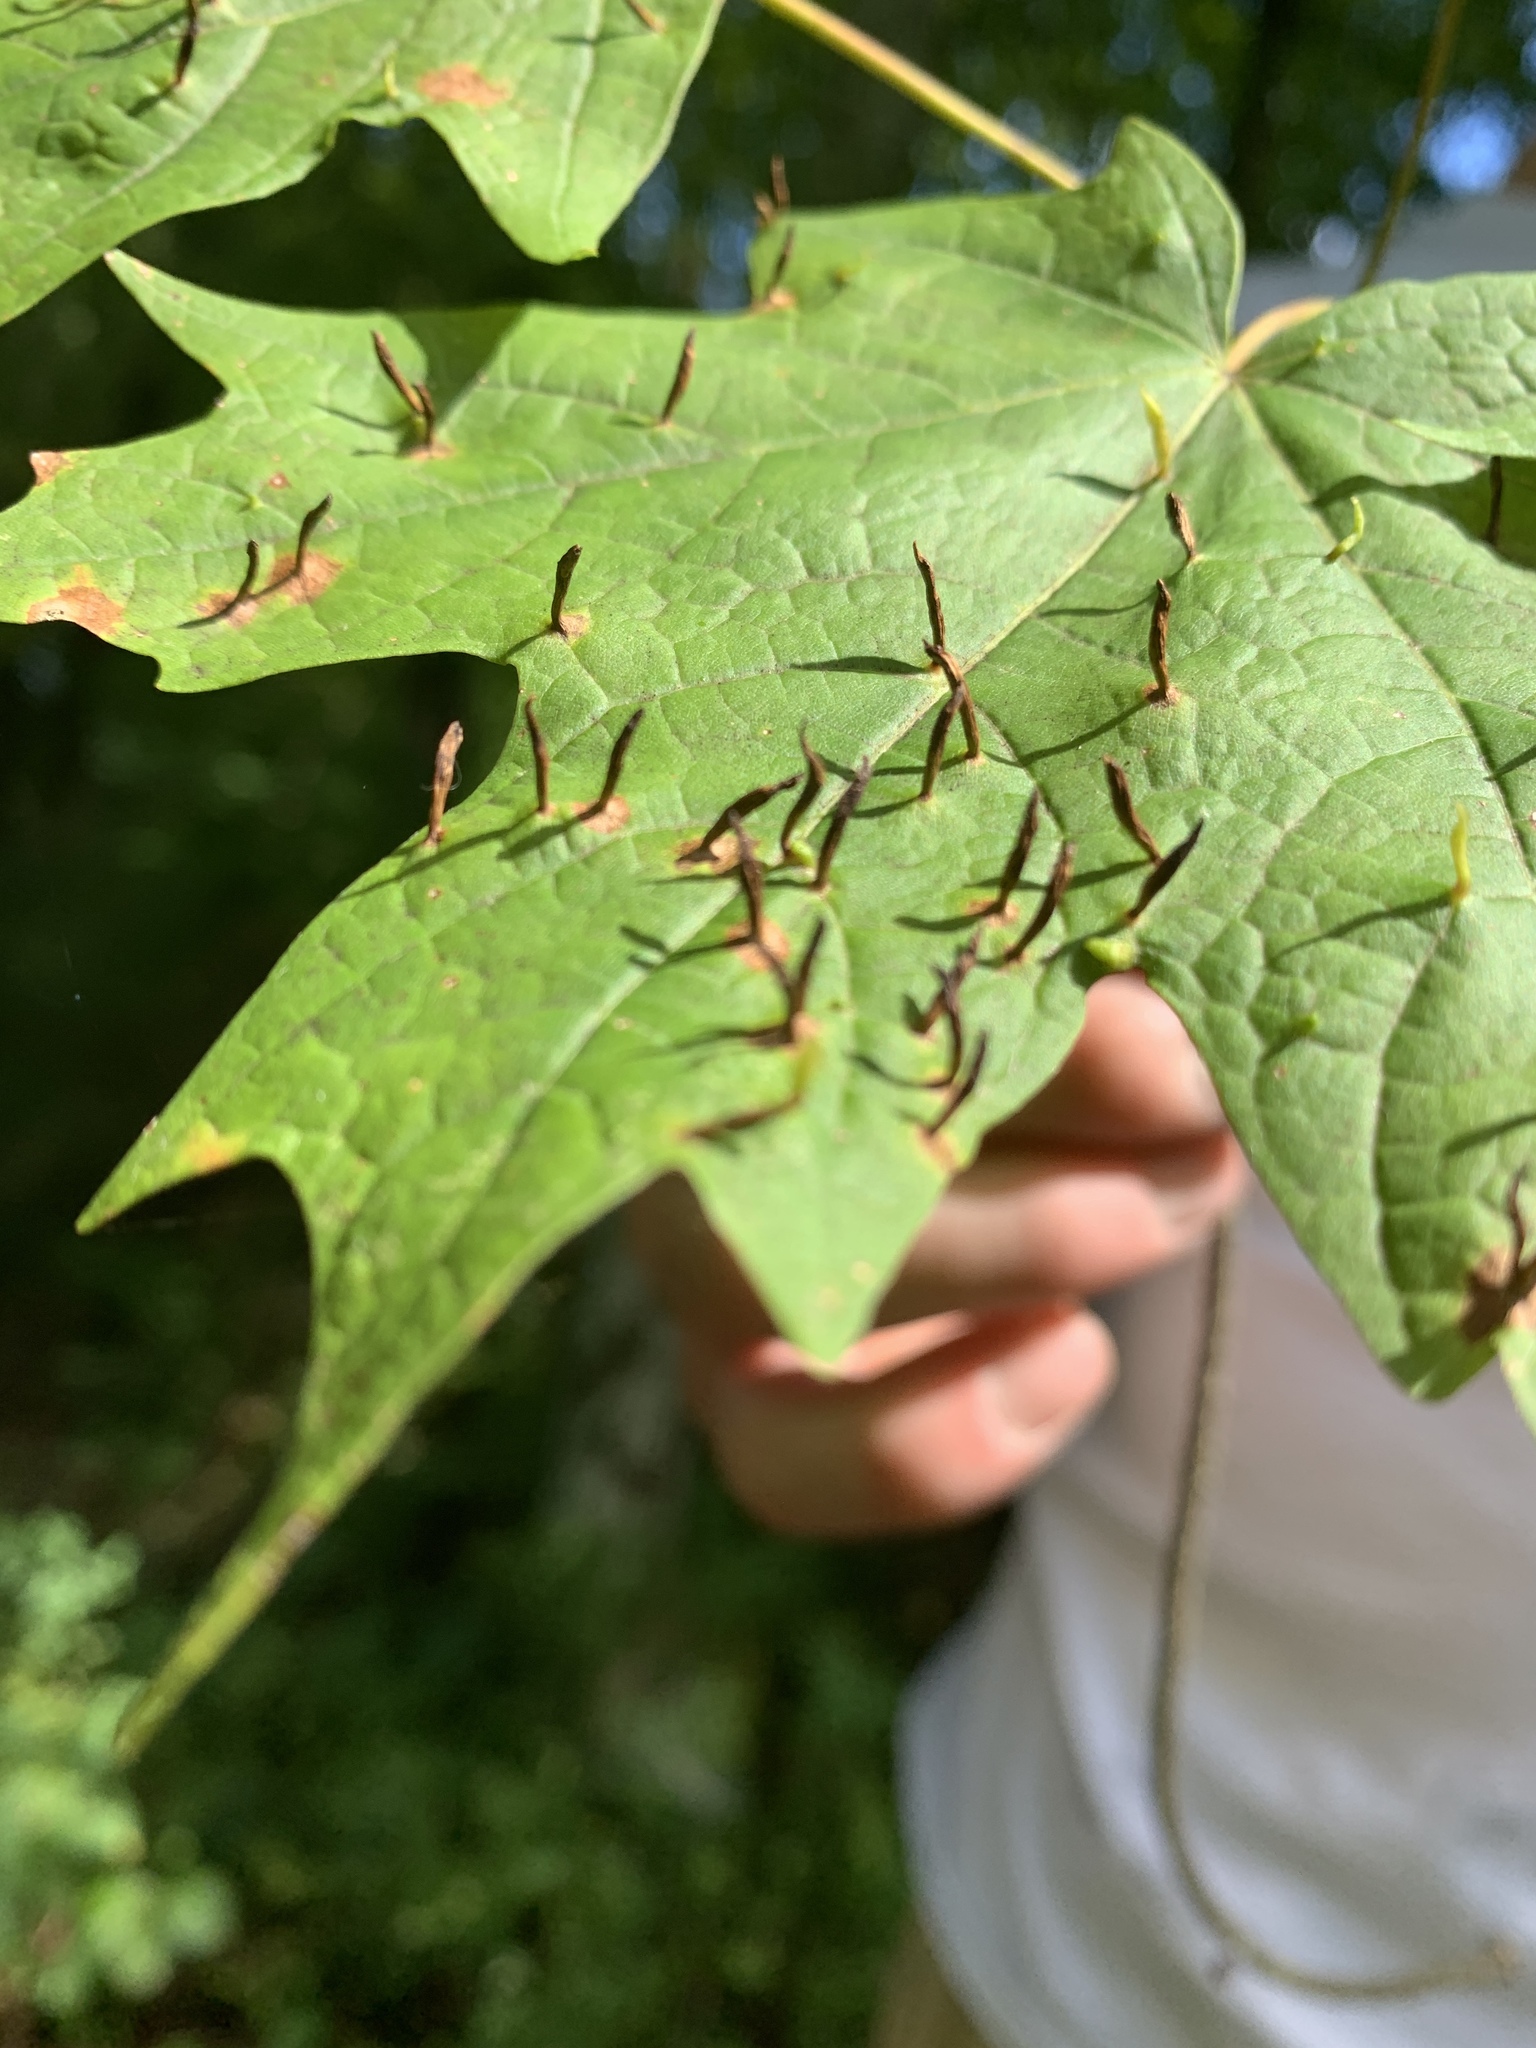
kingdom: Animalia
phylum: Arthropoda
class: Arachnida
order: Trombidiformes
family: Eriophyidae
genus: Vasates
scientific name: Vasates aceriscrumena
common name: Maple spindle gall mite
